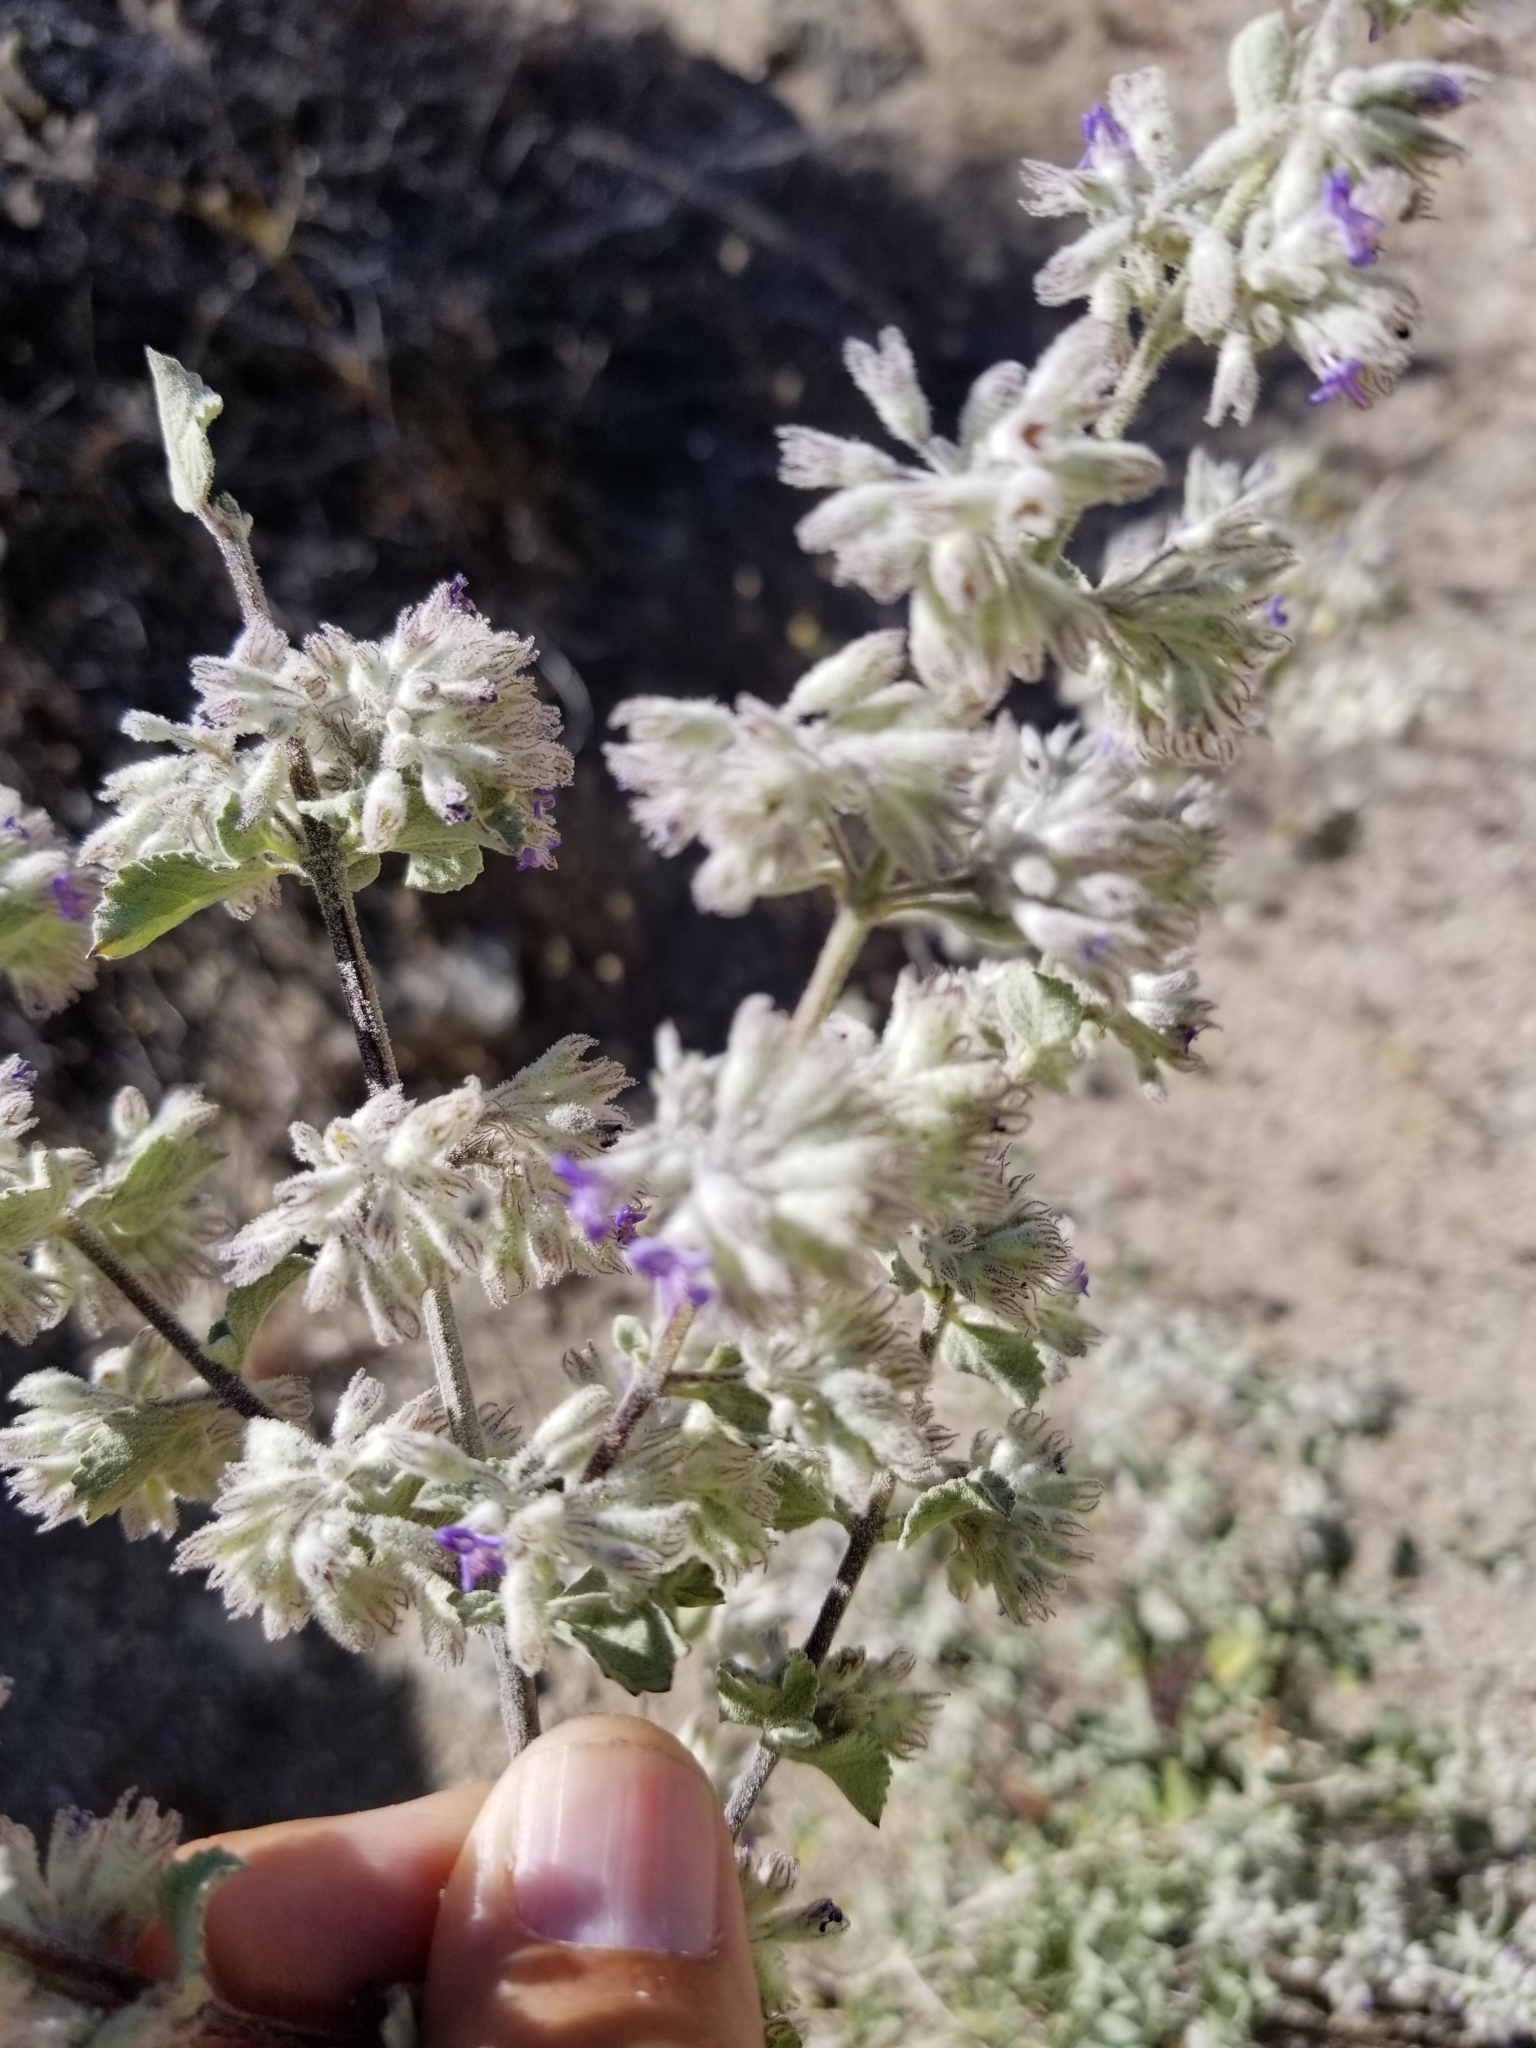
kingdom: Plantae
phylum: Tracheophyta
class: Magnoliopsida
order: Lamiales
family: Lamiaceae
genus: Condea
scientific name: Condea emoryi
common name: Chia
